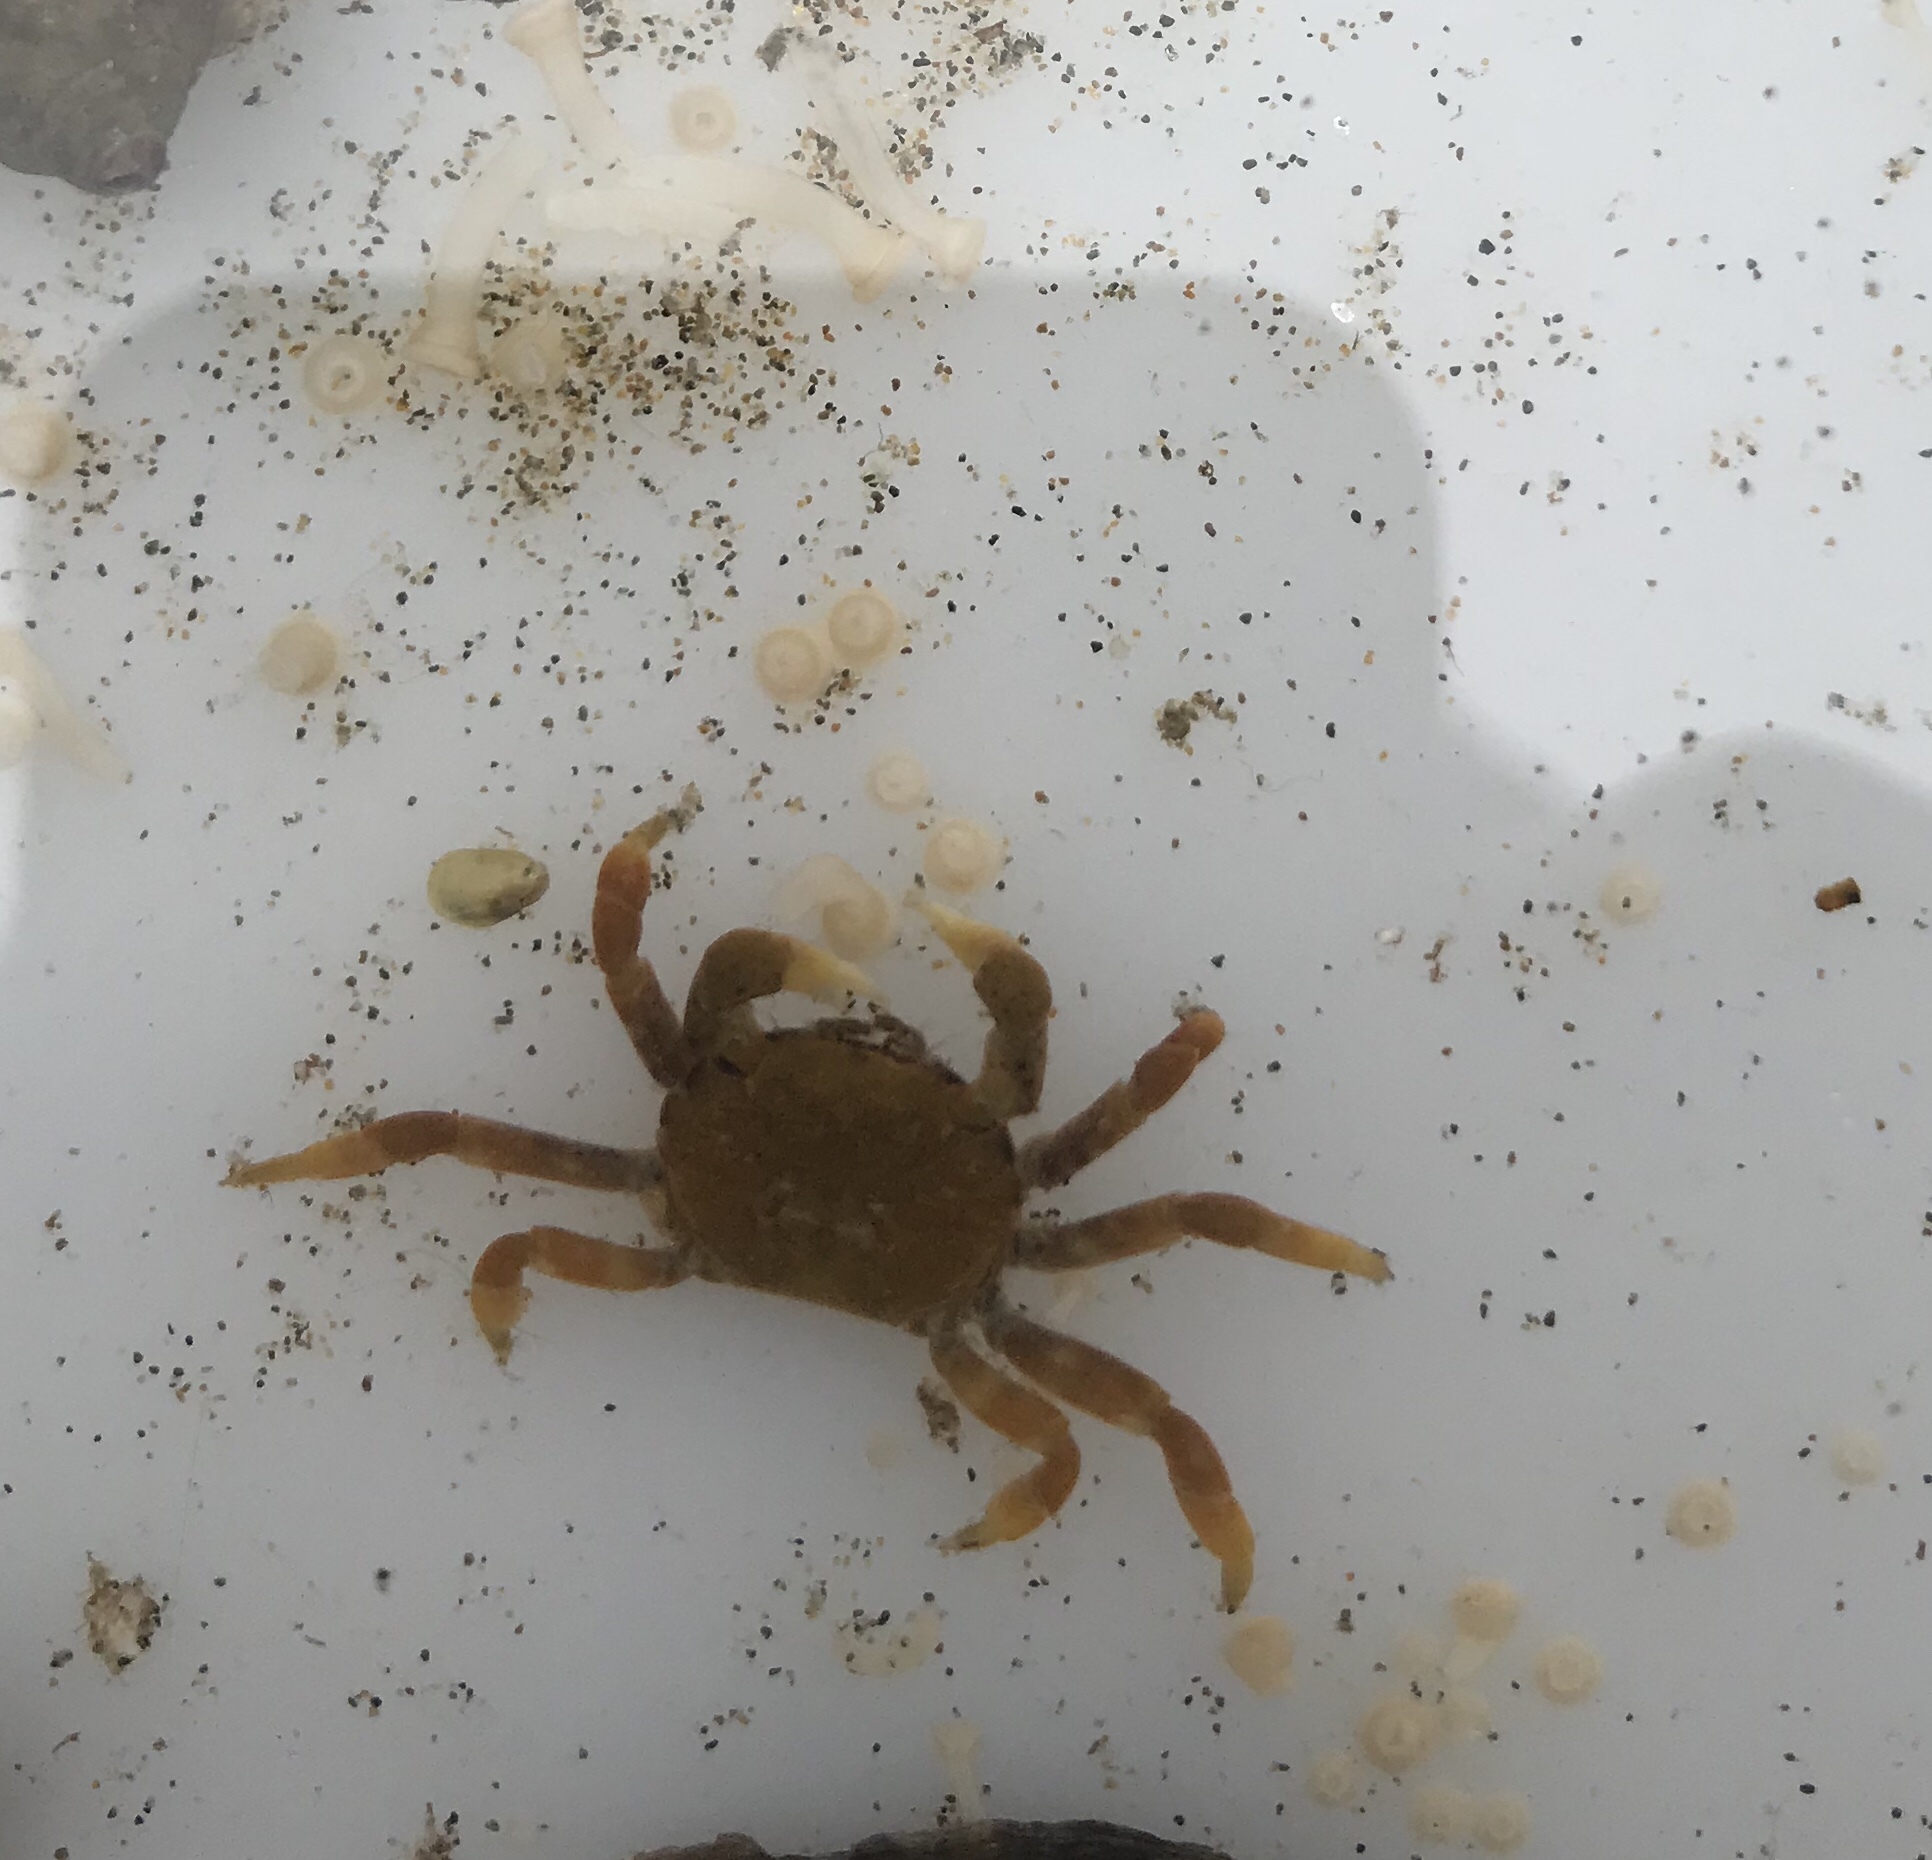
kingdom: Animalia
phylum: Arthropoda
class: Malacostraca
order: Decapoda
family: Varunidae
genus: Hemigrapsus
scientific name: Hemigrapsus nudus
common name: Purple shore crab
